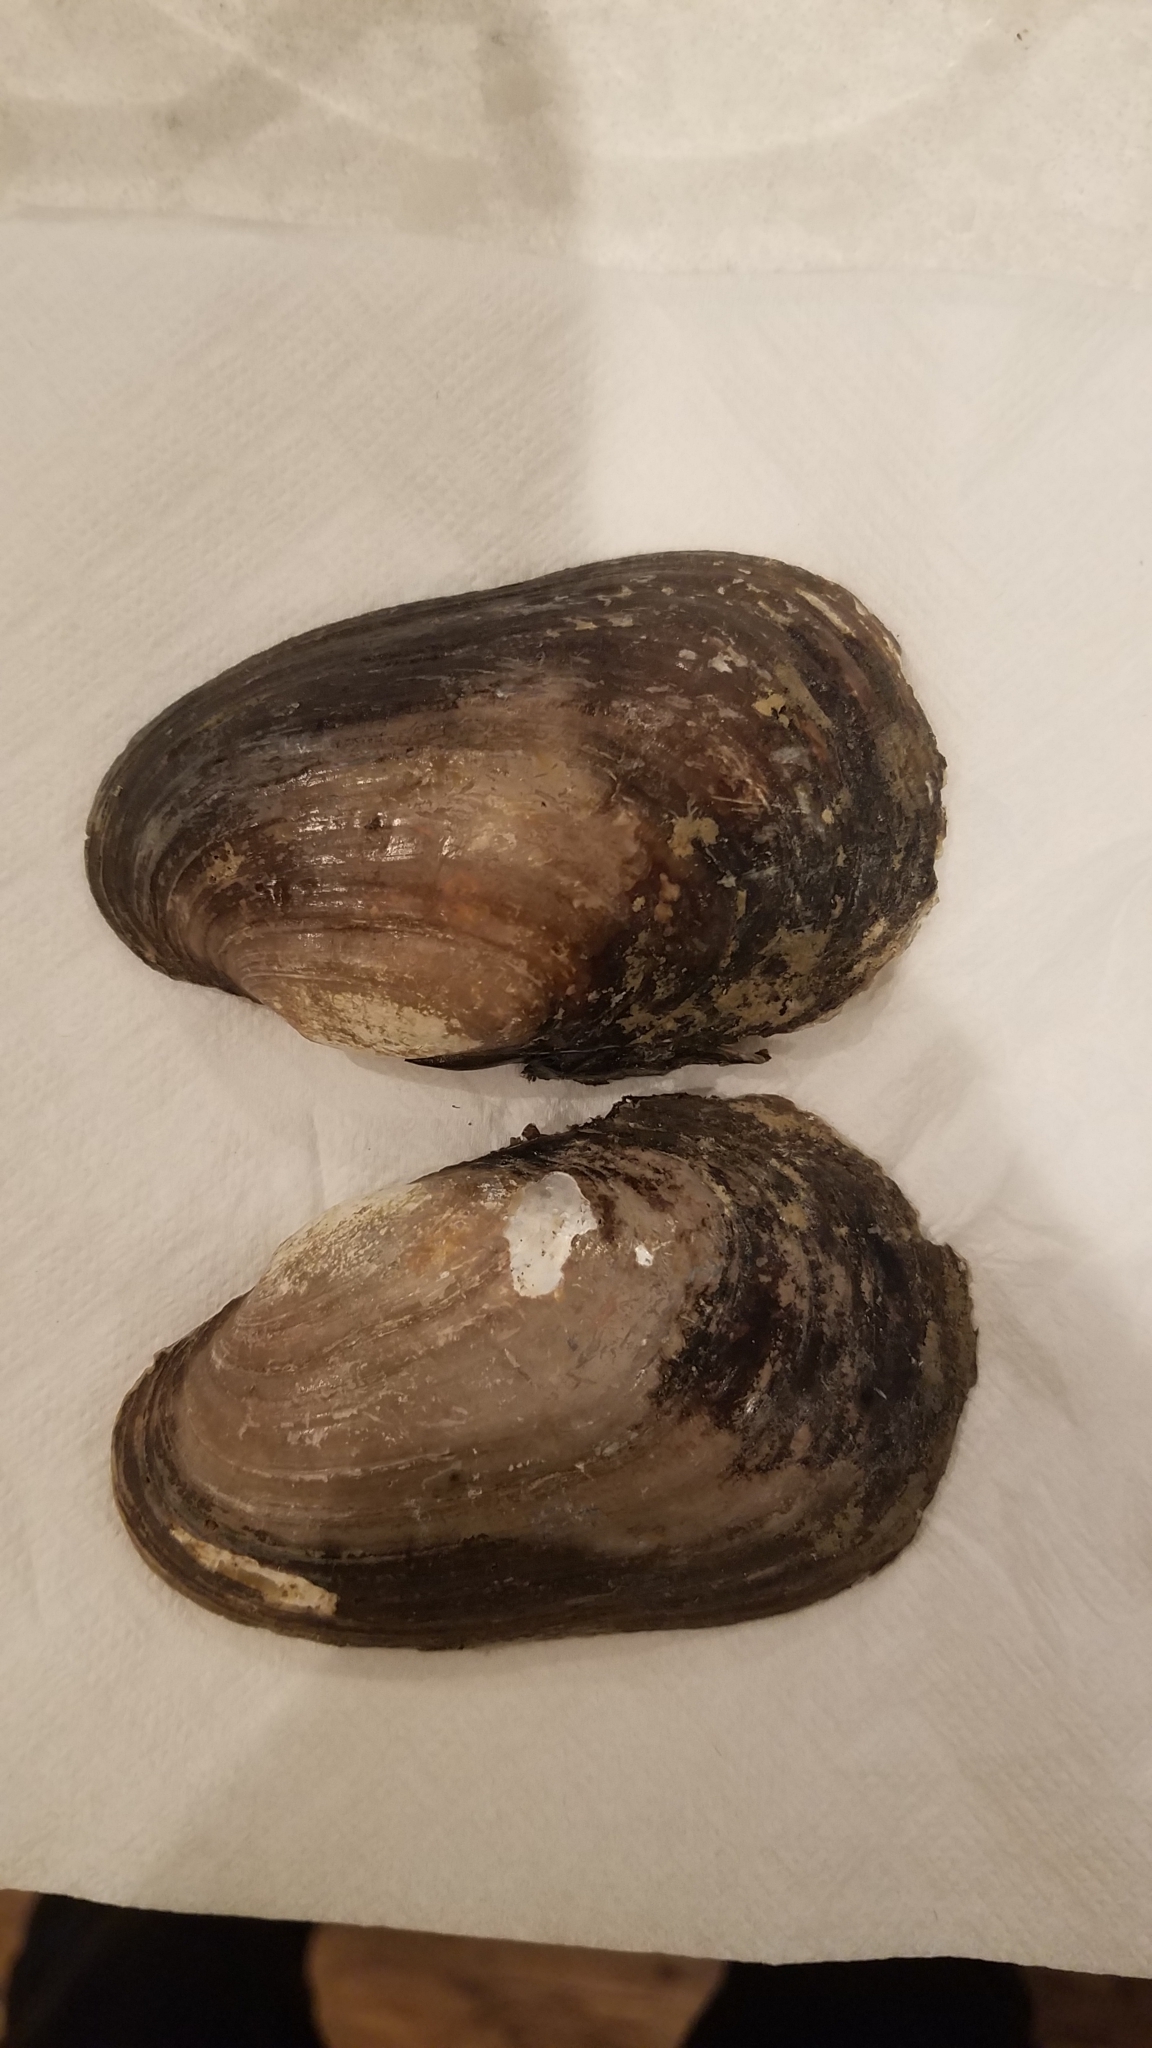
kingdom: Animalia
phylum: Mollusca
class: Bivalvia
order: Unionida
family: Unionidae
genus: Lampsilis
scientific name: Lampsilis siliquoidea
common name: Fatmucket
